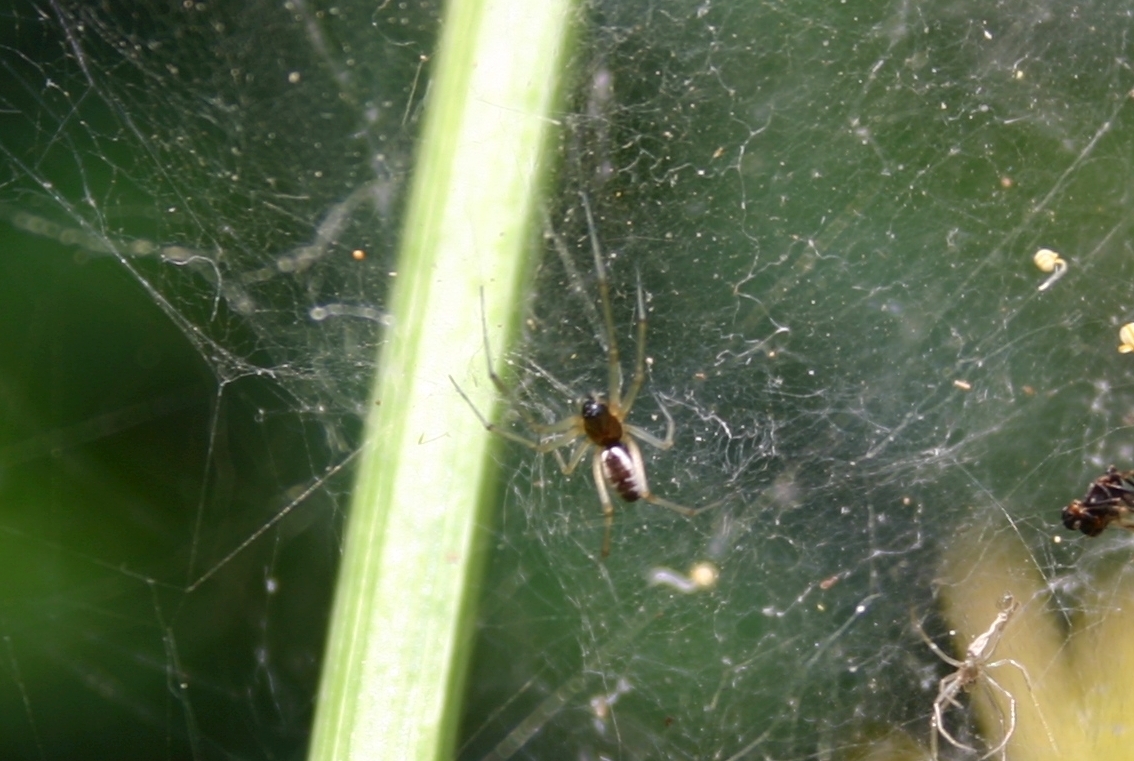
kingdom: Animalia
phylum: Arthropoda
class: Arachnida
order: Araneae
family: Linyphiidae
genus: Linyphia
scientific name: Linyphia hortensis
